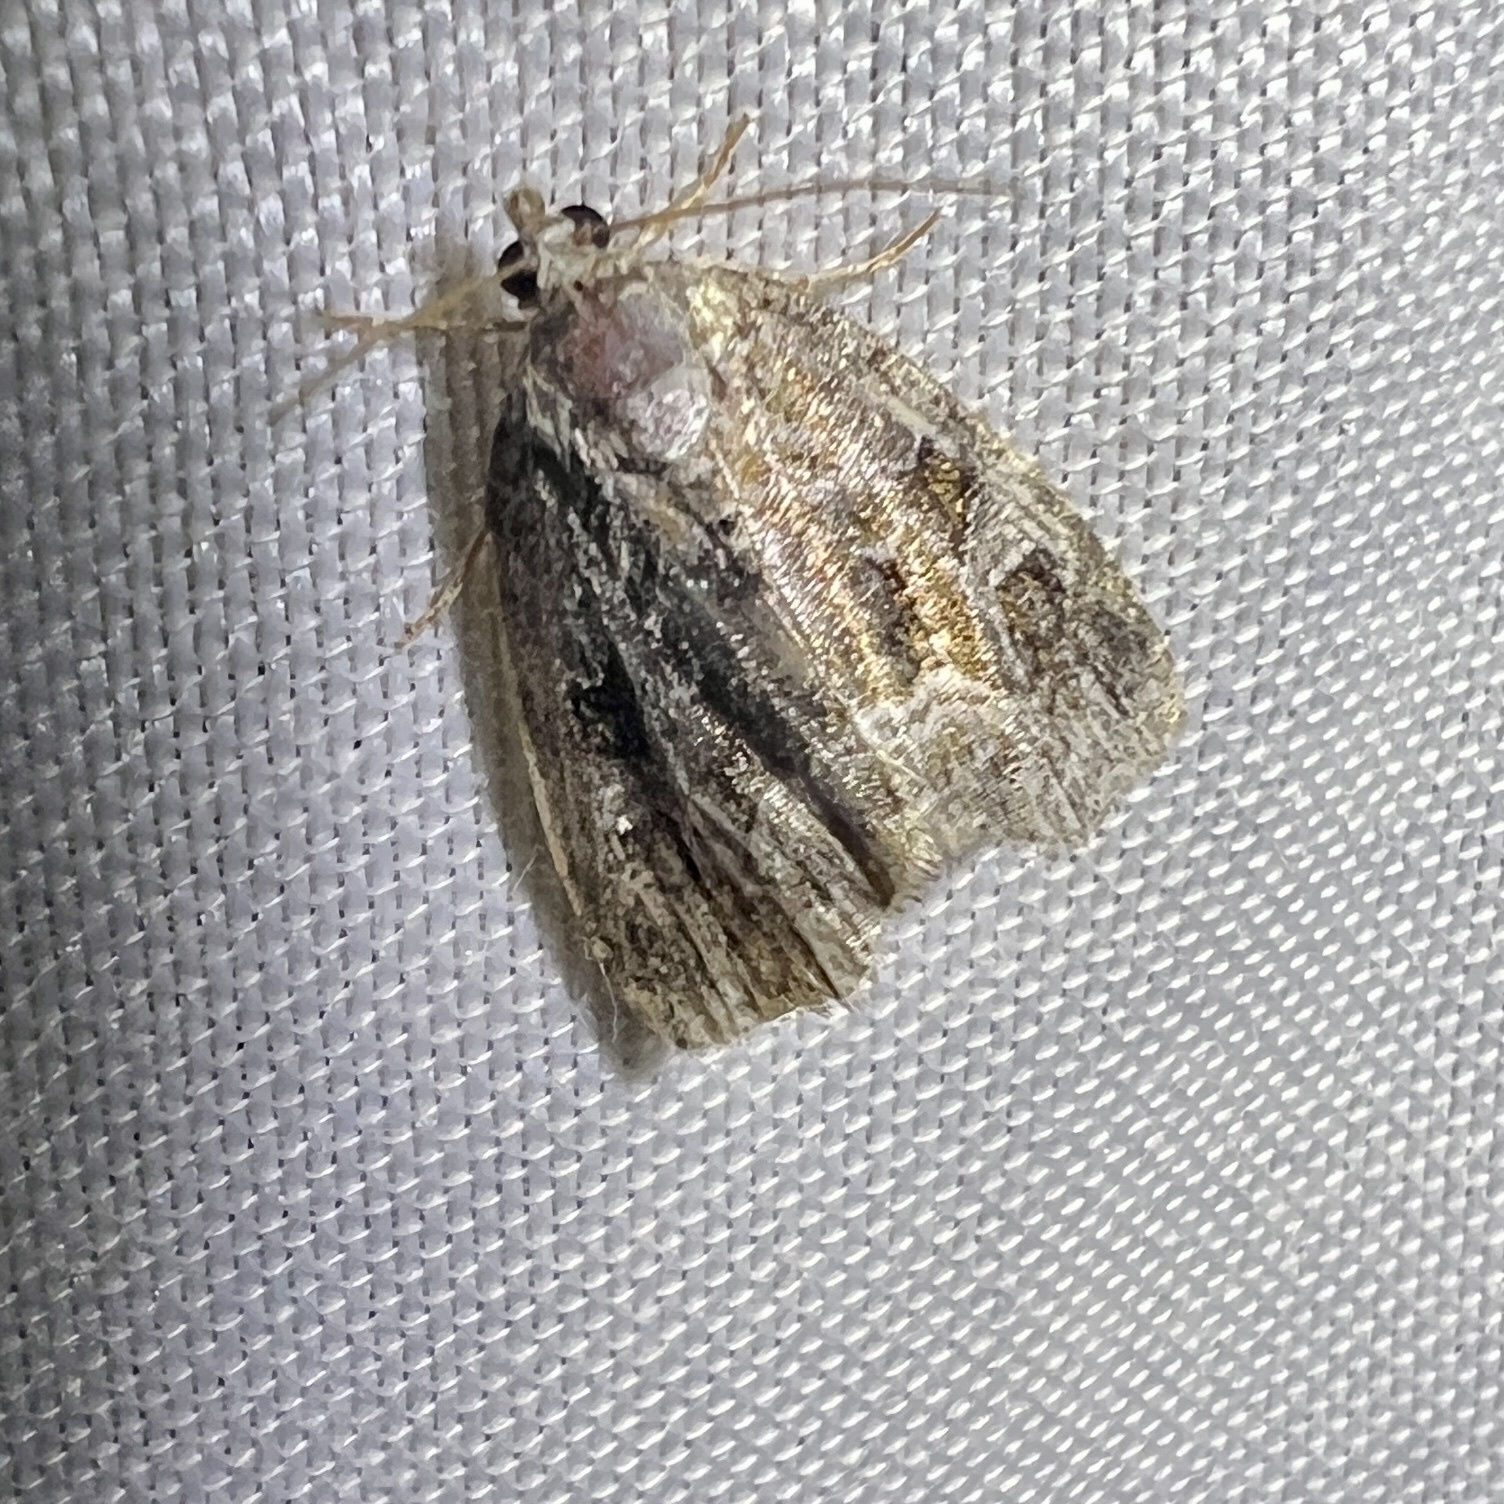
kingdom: Animalia
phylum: Arthropoda
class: Insecta
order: Lepidoptera
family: Noctuidae
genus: Protodeltote
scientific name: Protodeltote muscosula
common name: Large mossy glyph
